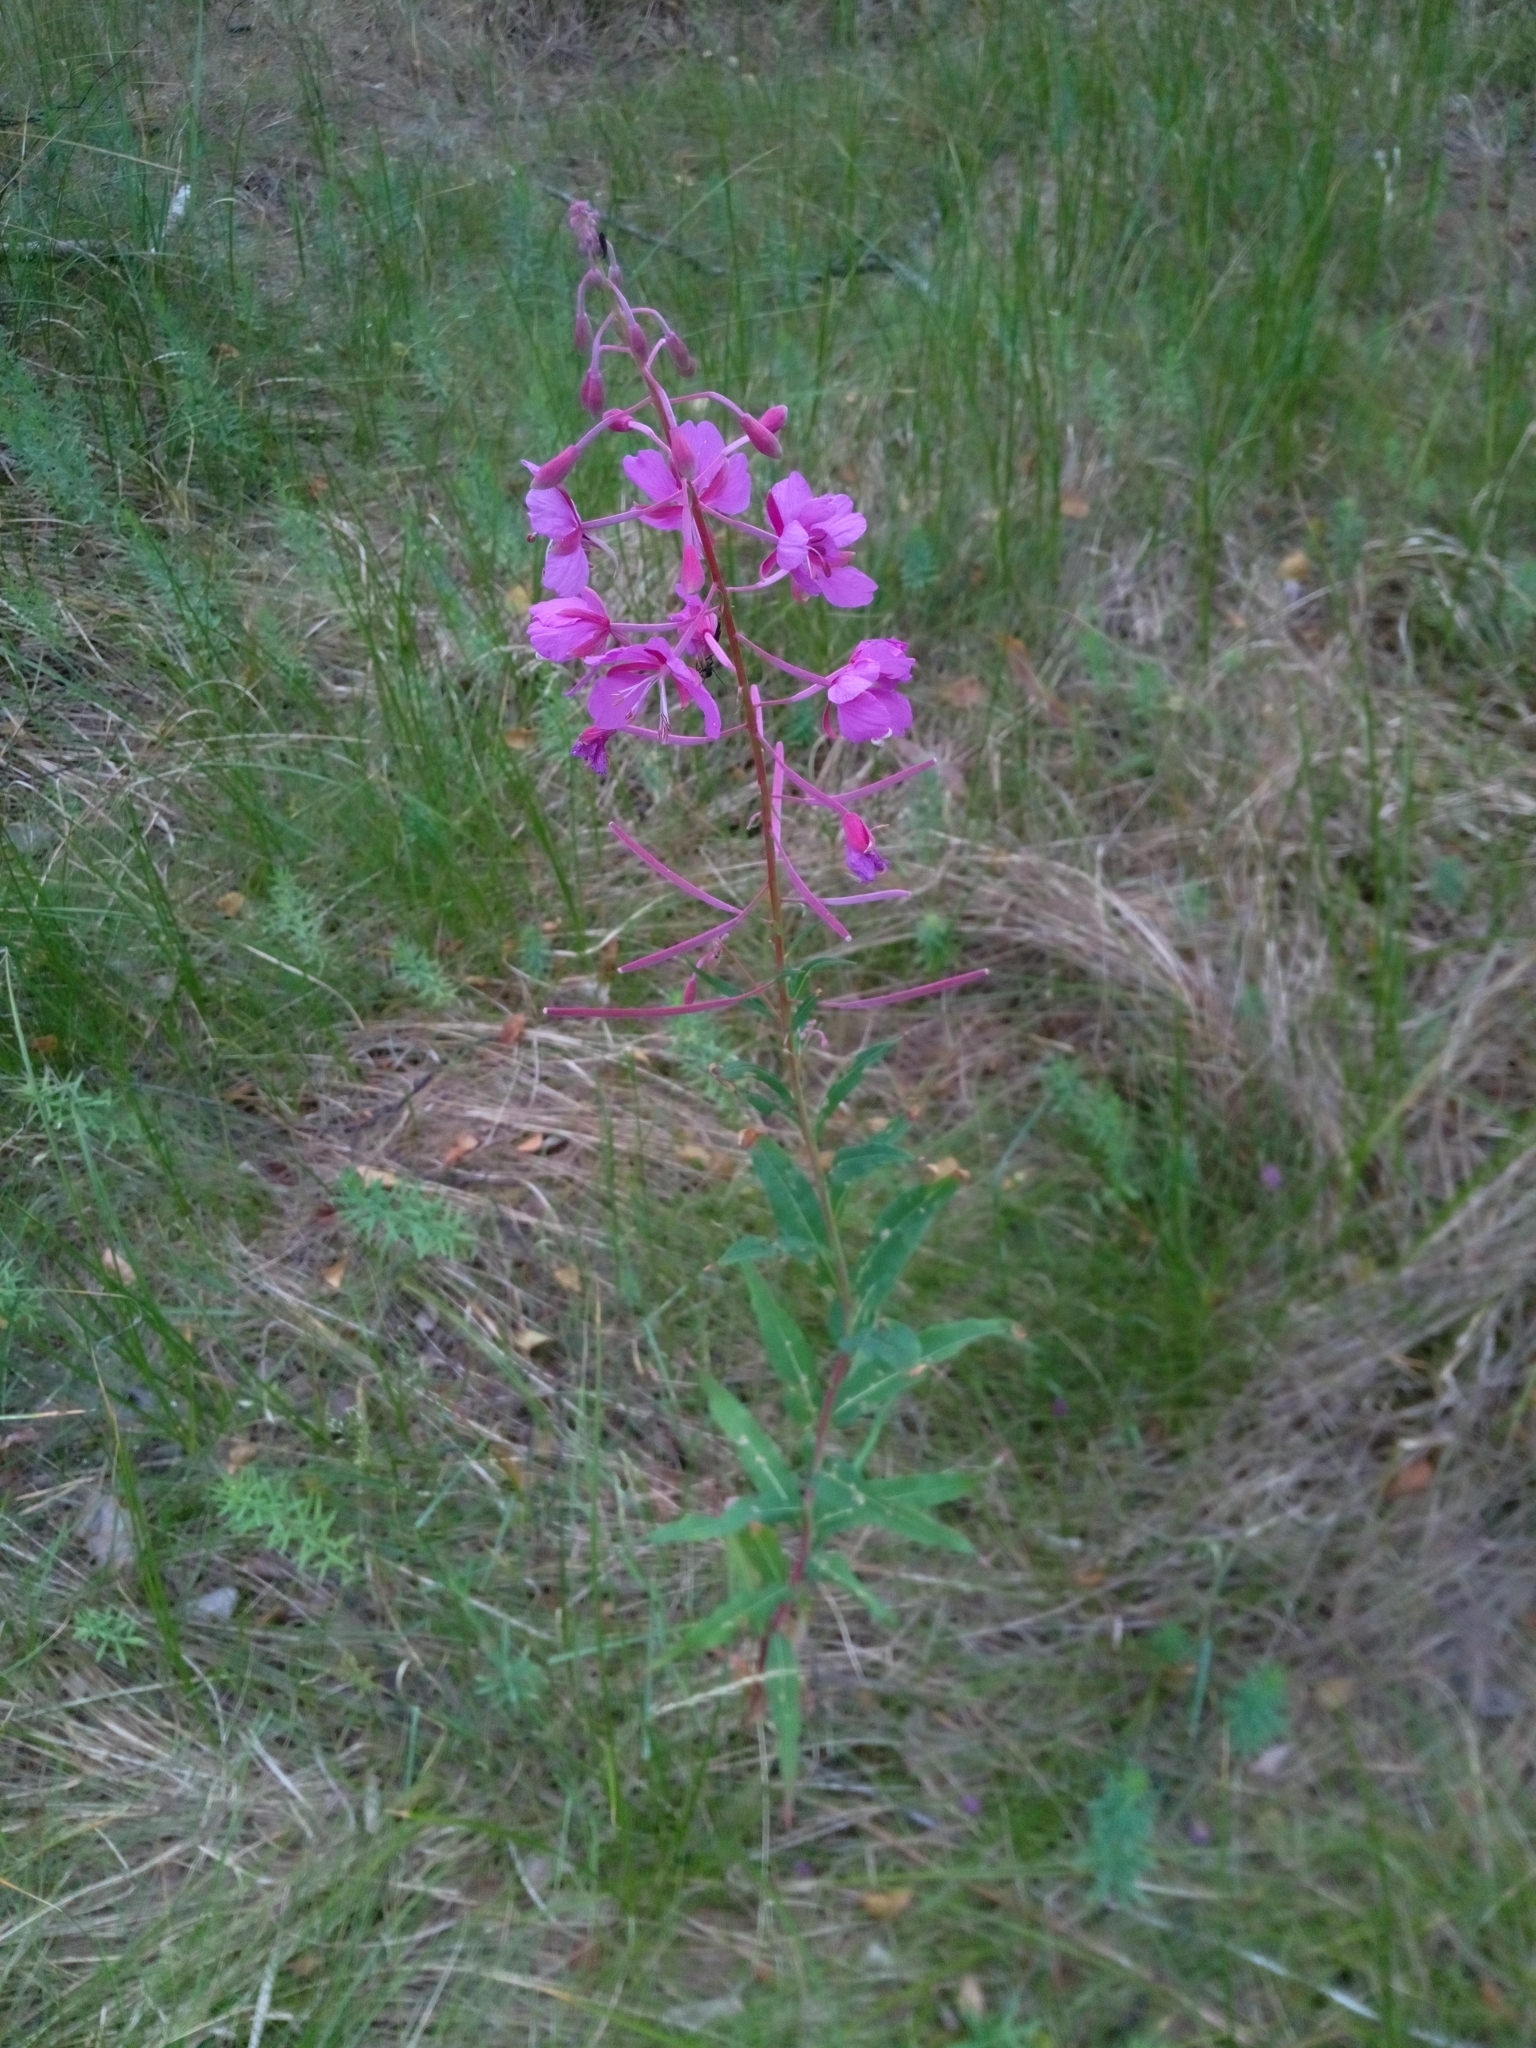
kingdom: Plantae
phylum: Tracheophyta
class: Magnoliopsida
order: Myrtales
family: Onagraceae
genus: Chamaenerion
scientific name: Chamaenerion angustifolium
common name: Fireweed
